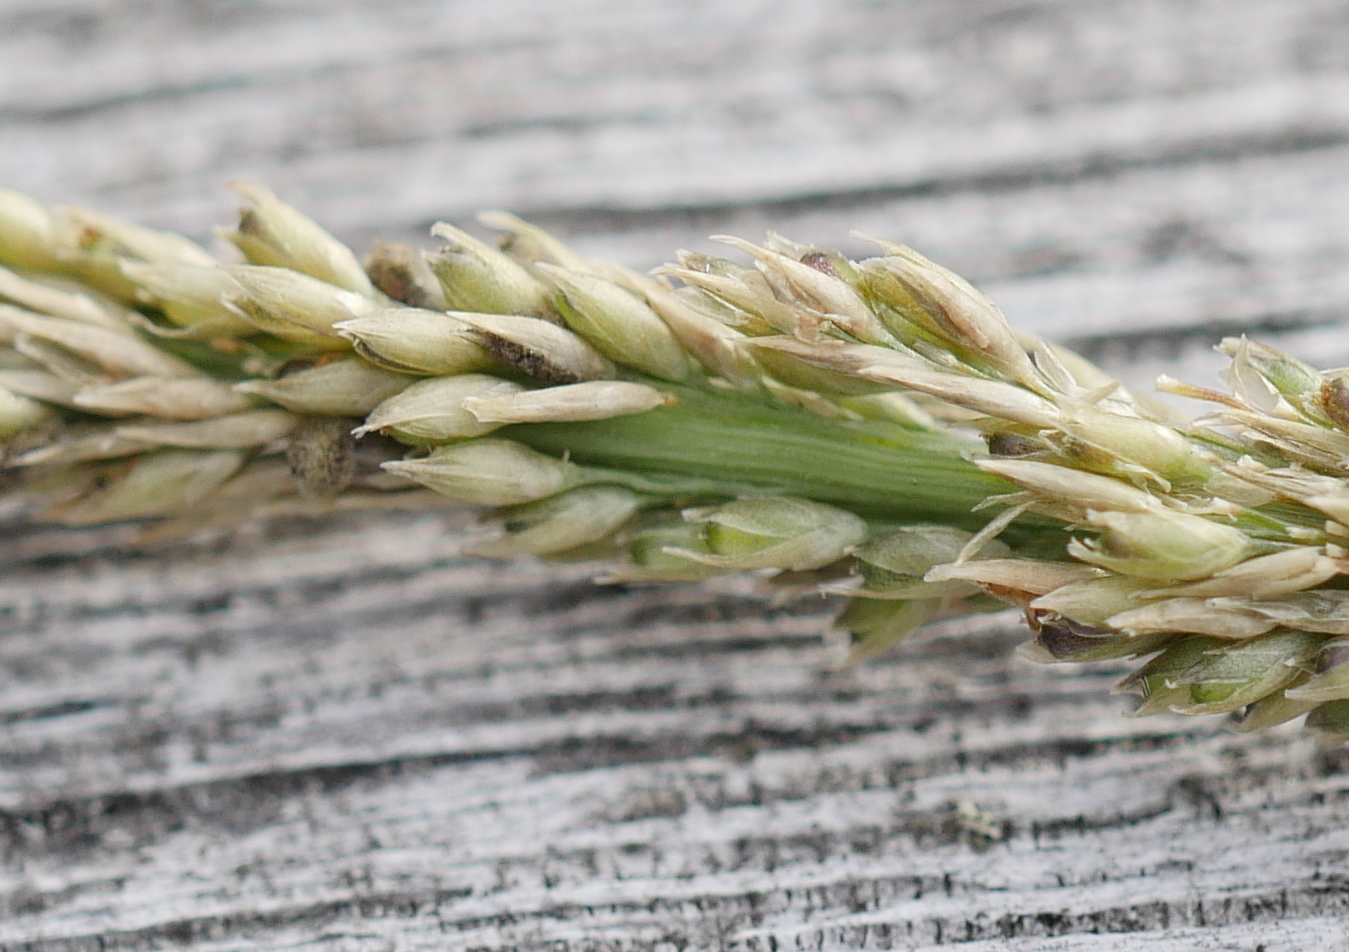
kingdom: Plantae
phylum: Tracheophyta
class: Liliopsida
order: Poales
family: Poaceae
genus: Sporobolus
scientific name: Sporobolus africanus
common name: African dropseed
